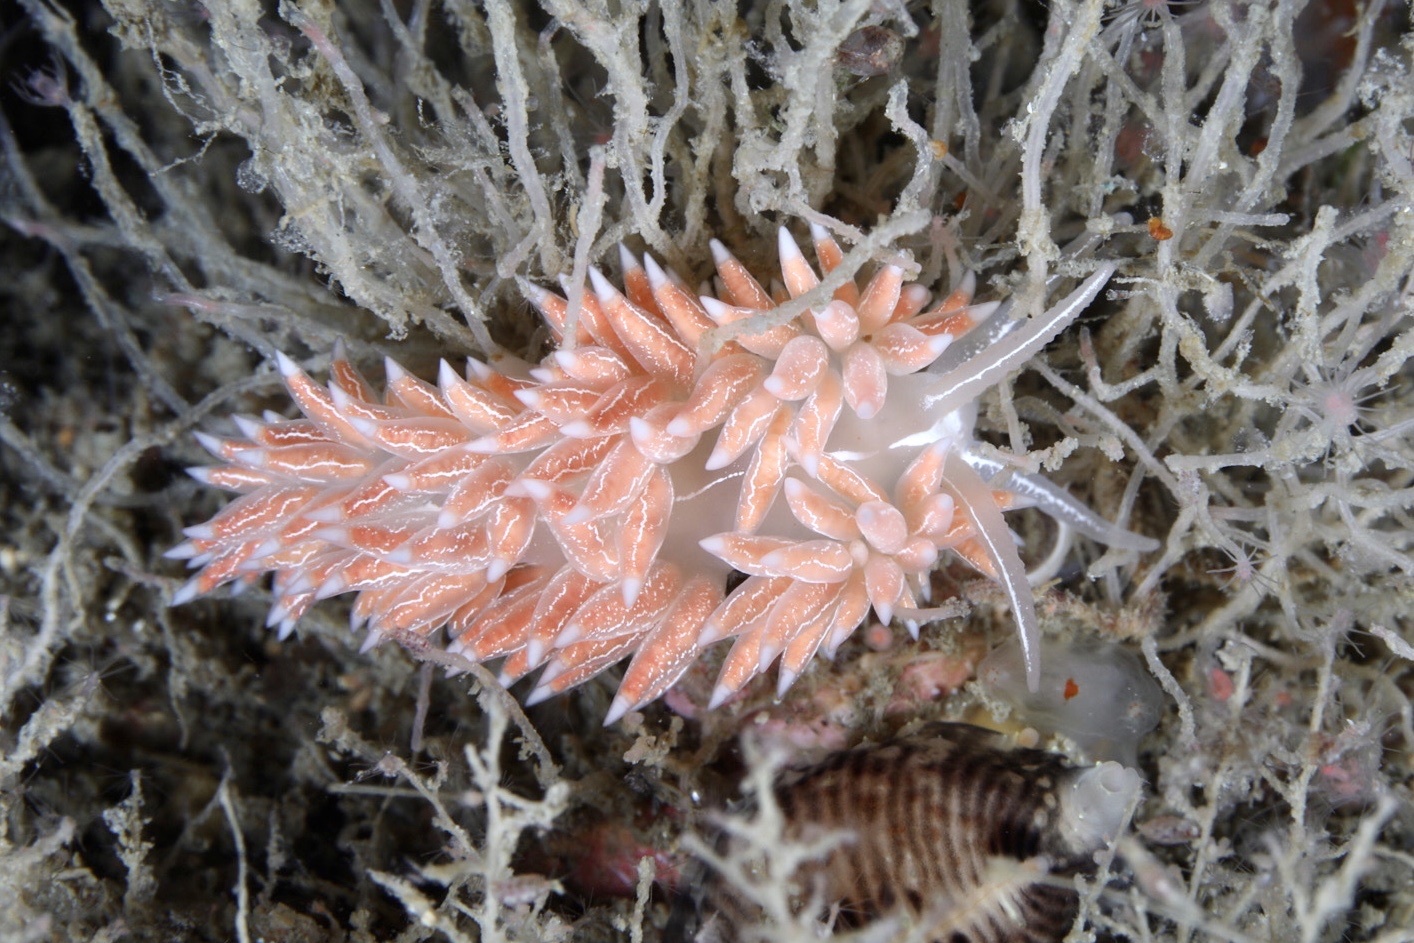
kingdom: Animalia
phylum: Mollusca
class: Gastropoda
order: Nudibranchia
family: Coryphellidae
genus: Coryphella
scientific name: Coryphella chriskaugei
